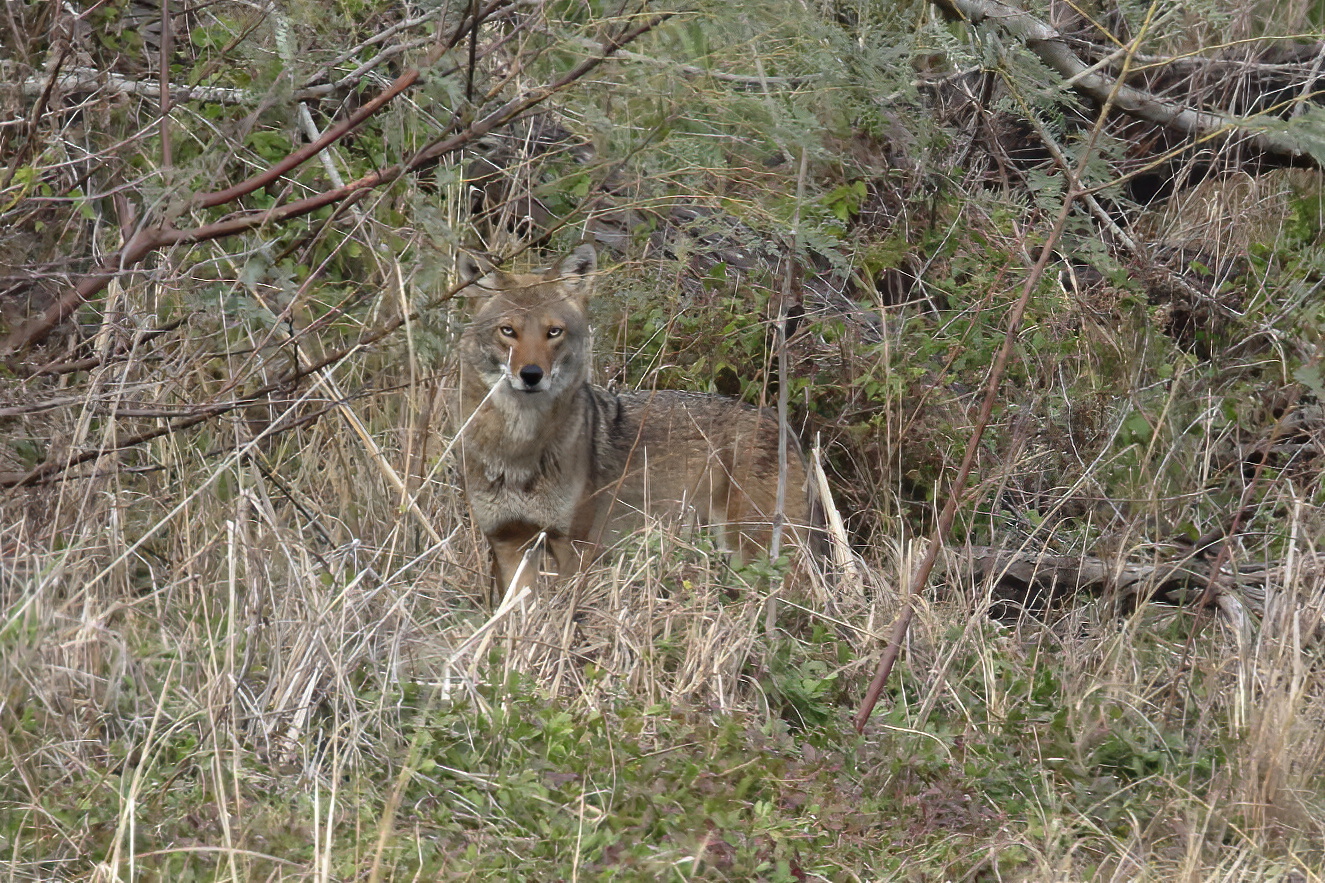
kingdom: Animalia
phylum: Chordata
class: Mammalia
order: Carnivora
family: Canidae
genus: Canis
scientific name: Canis latrans
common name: Coyote
